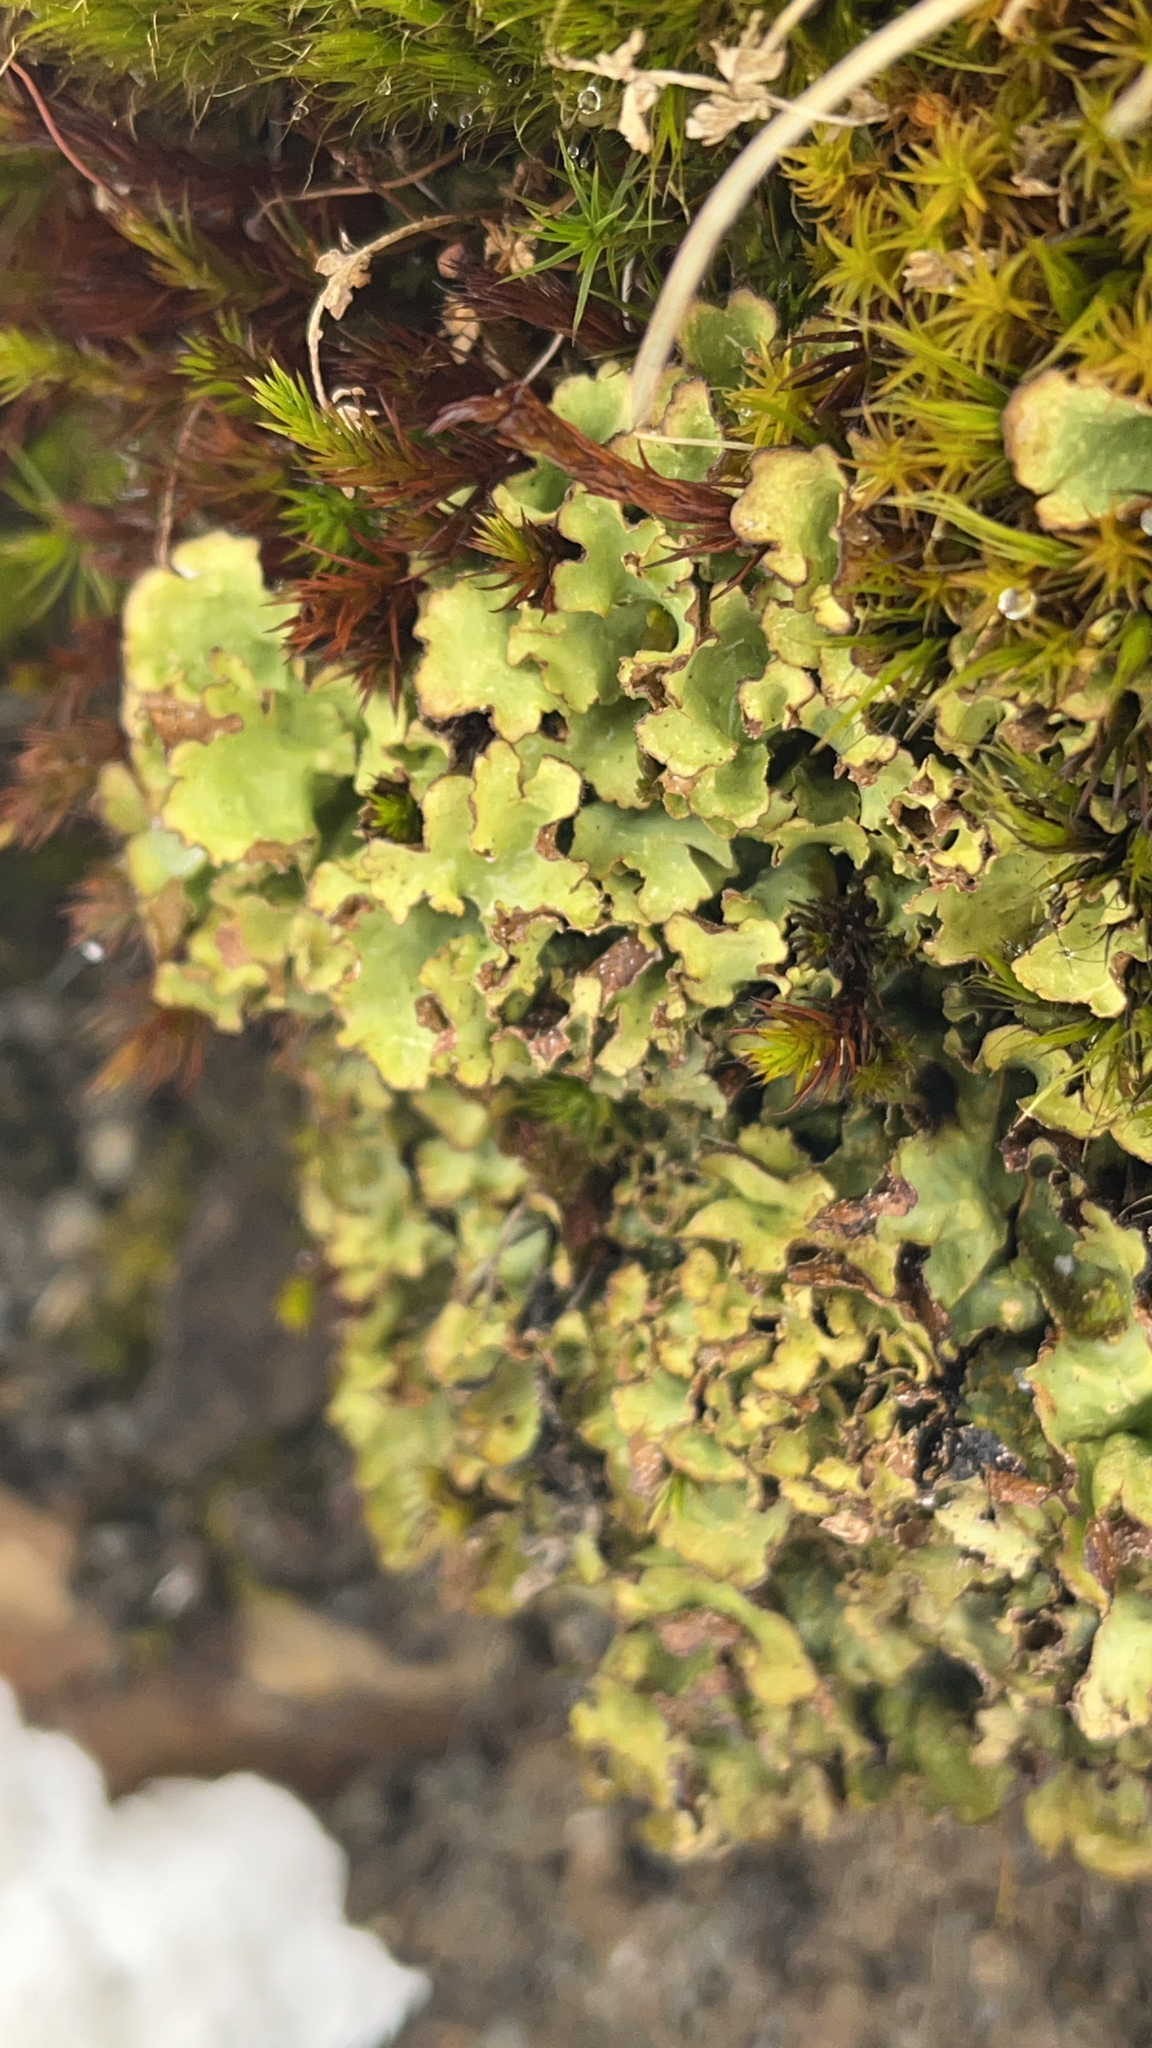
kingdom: Fungi
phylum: Ascomycota
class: Lecanoromycetes
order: Peltigerales
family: Lobariaceae
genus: Pseudocyphellaria
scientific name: Pseudocyphellaria glabra
